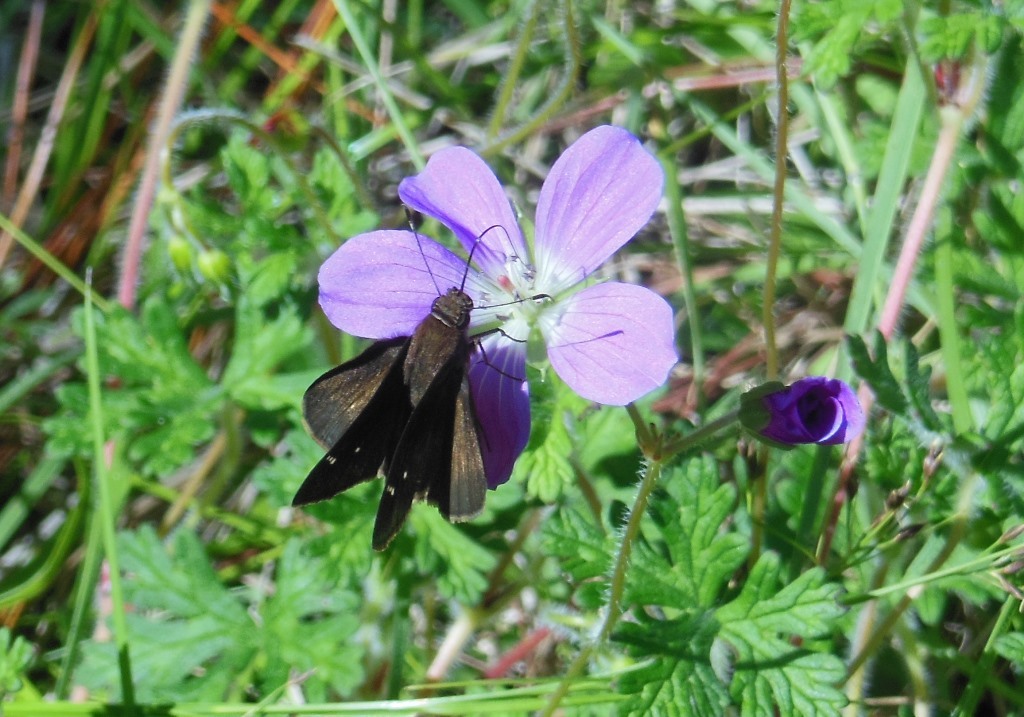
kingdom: Animalia
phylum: Arthropoda
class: Insecta
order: Lepidoptera
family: Hesperiidae
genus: Cymaenes
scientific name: Cymaenes
